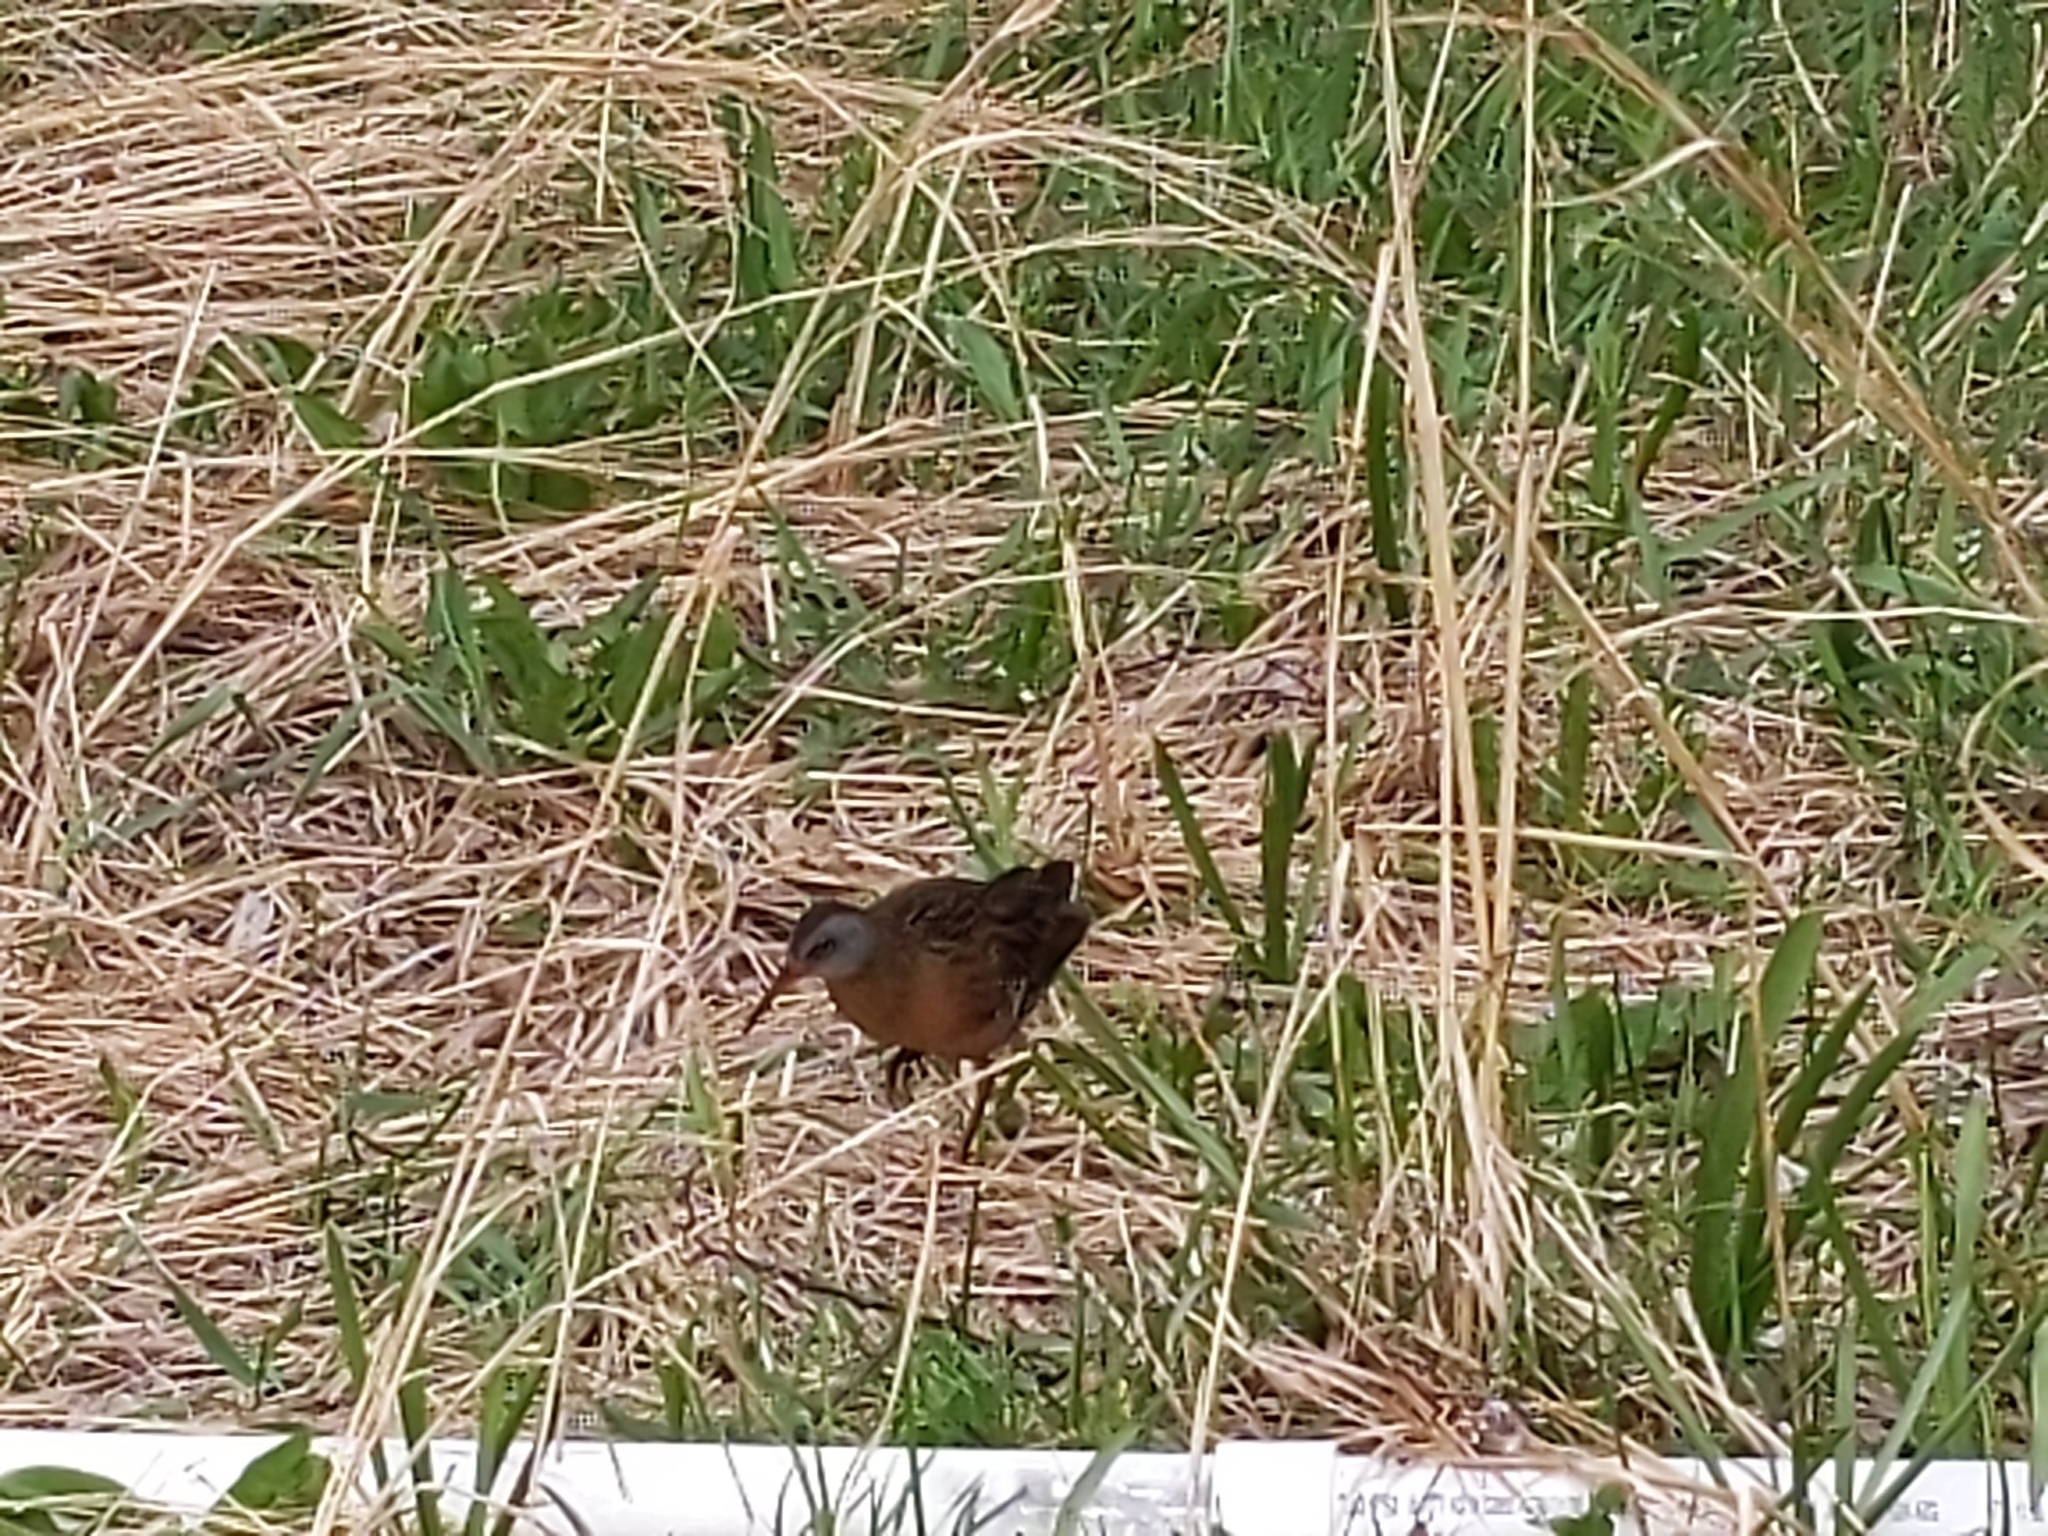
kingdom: Animalia
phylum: Chordata
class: Aves
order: Gruiformes
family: Rallidae
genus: Rallus
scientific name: Rallus limicola
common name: Virginia rail
